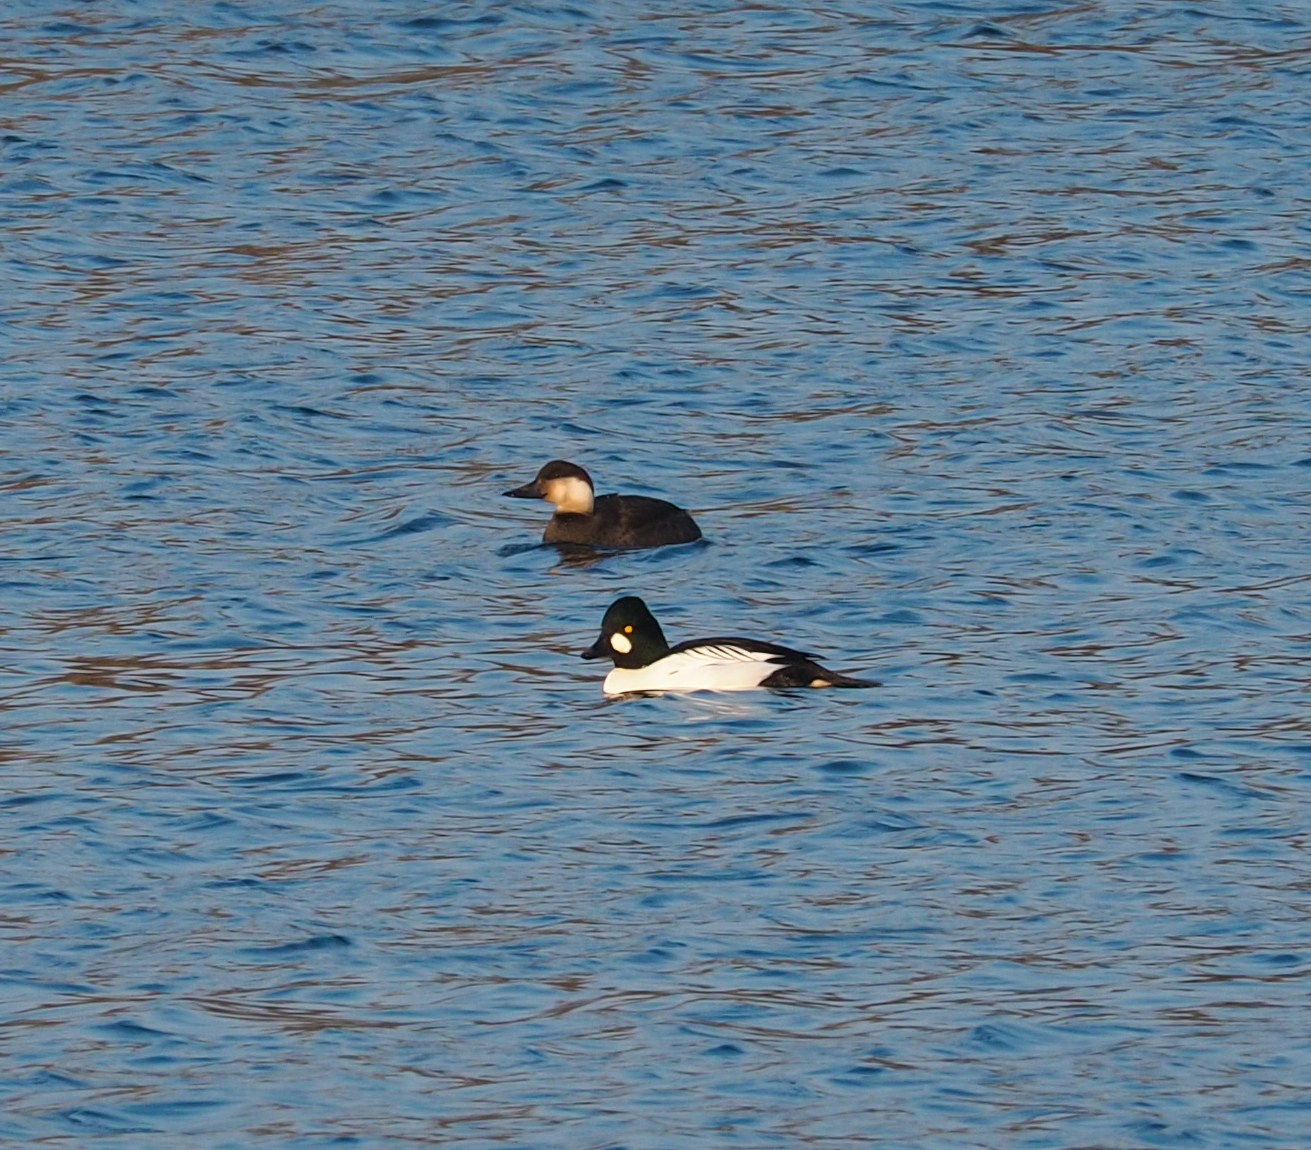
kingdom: Animalia
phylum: Chordata
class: Aves
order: Anseriformes
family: Anatidae
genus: Bucephala
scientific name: Bucephala clangula
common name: Common goldeneye
